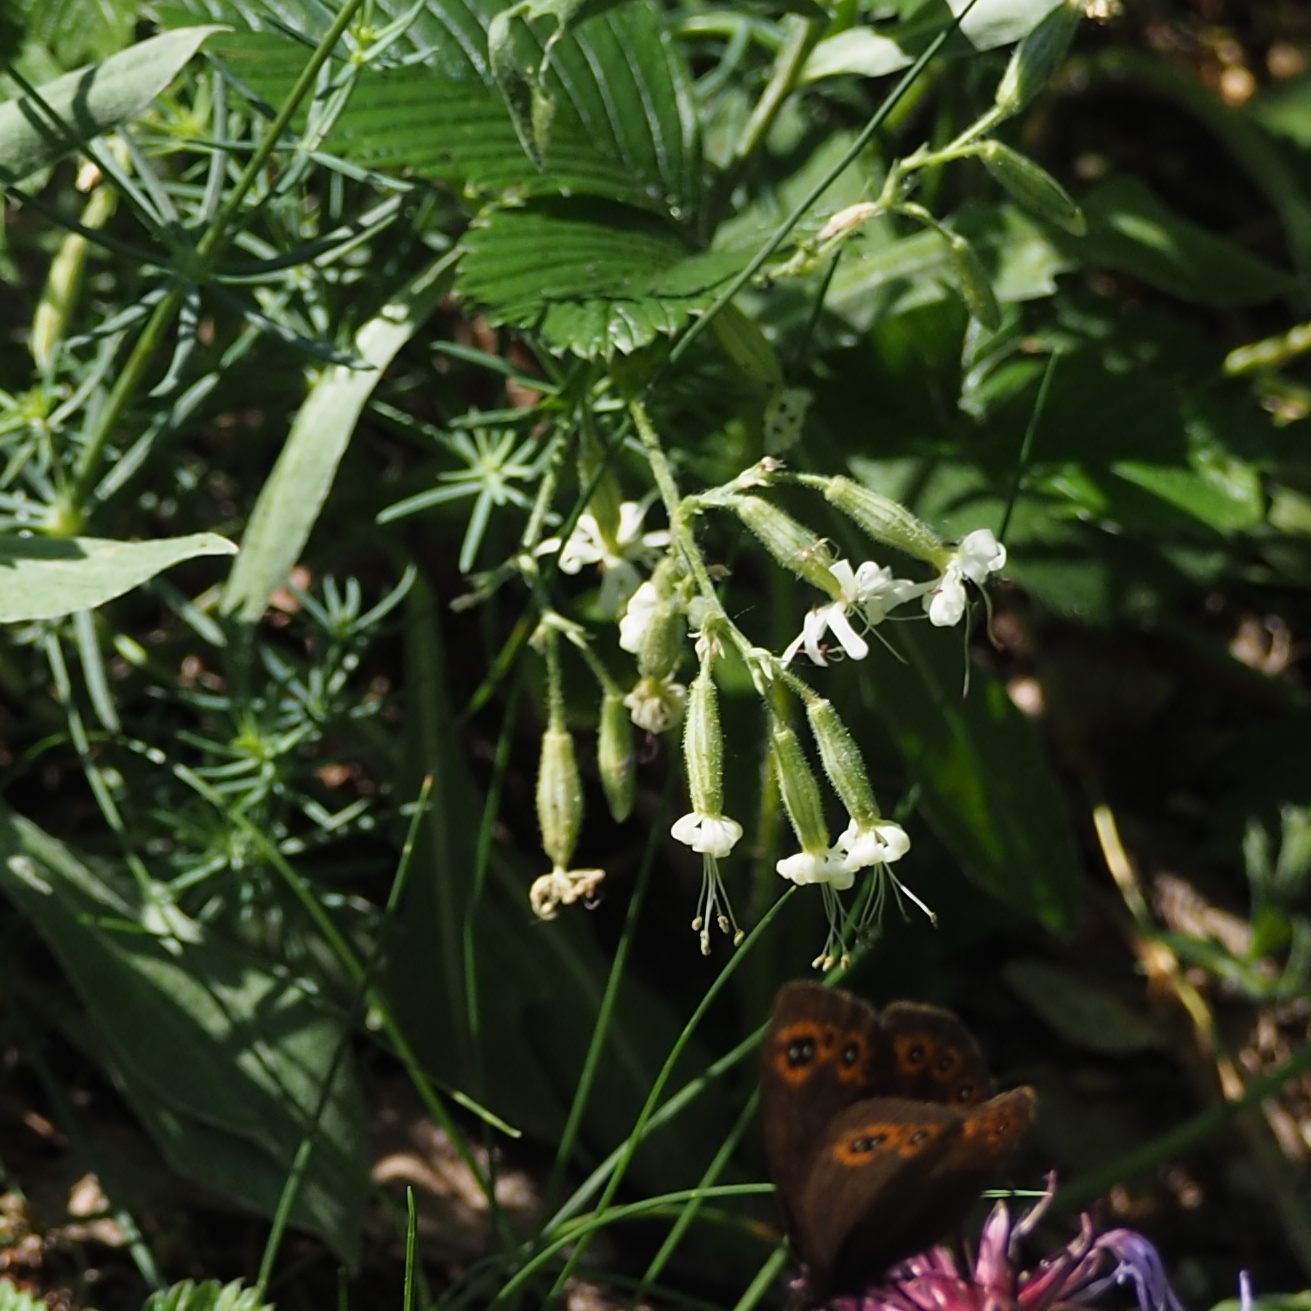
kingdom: Plantae
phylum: Tracheophyta
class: Magnoliopsida
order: Caryophyllales
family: Caryophyllaceae
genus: Silene
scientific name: Silene nutans
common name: Nottingham catchfly
